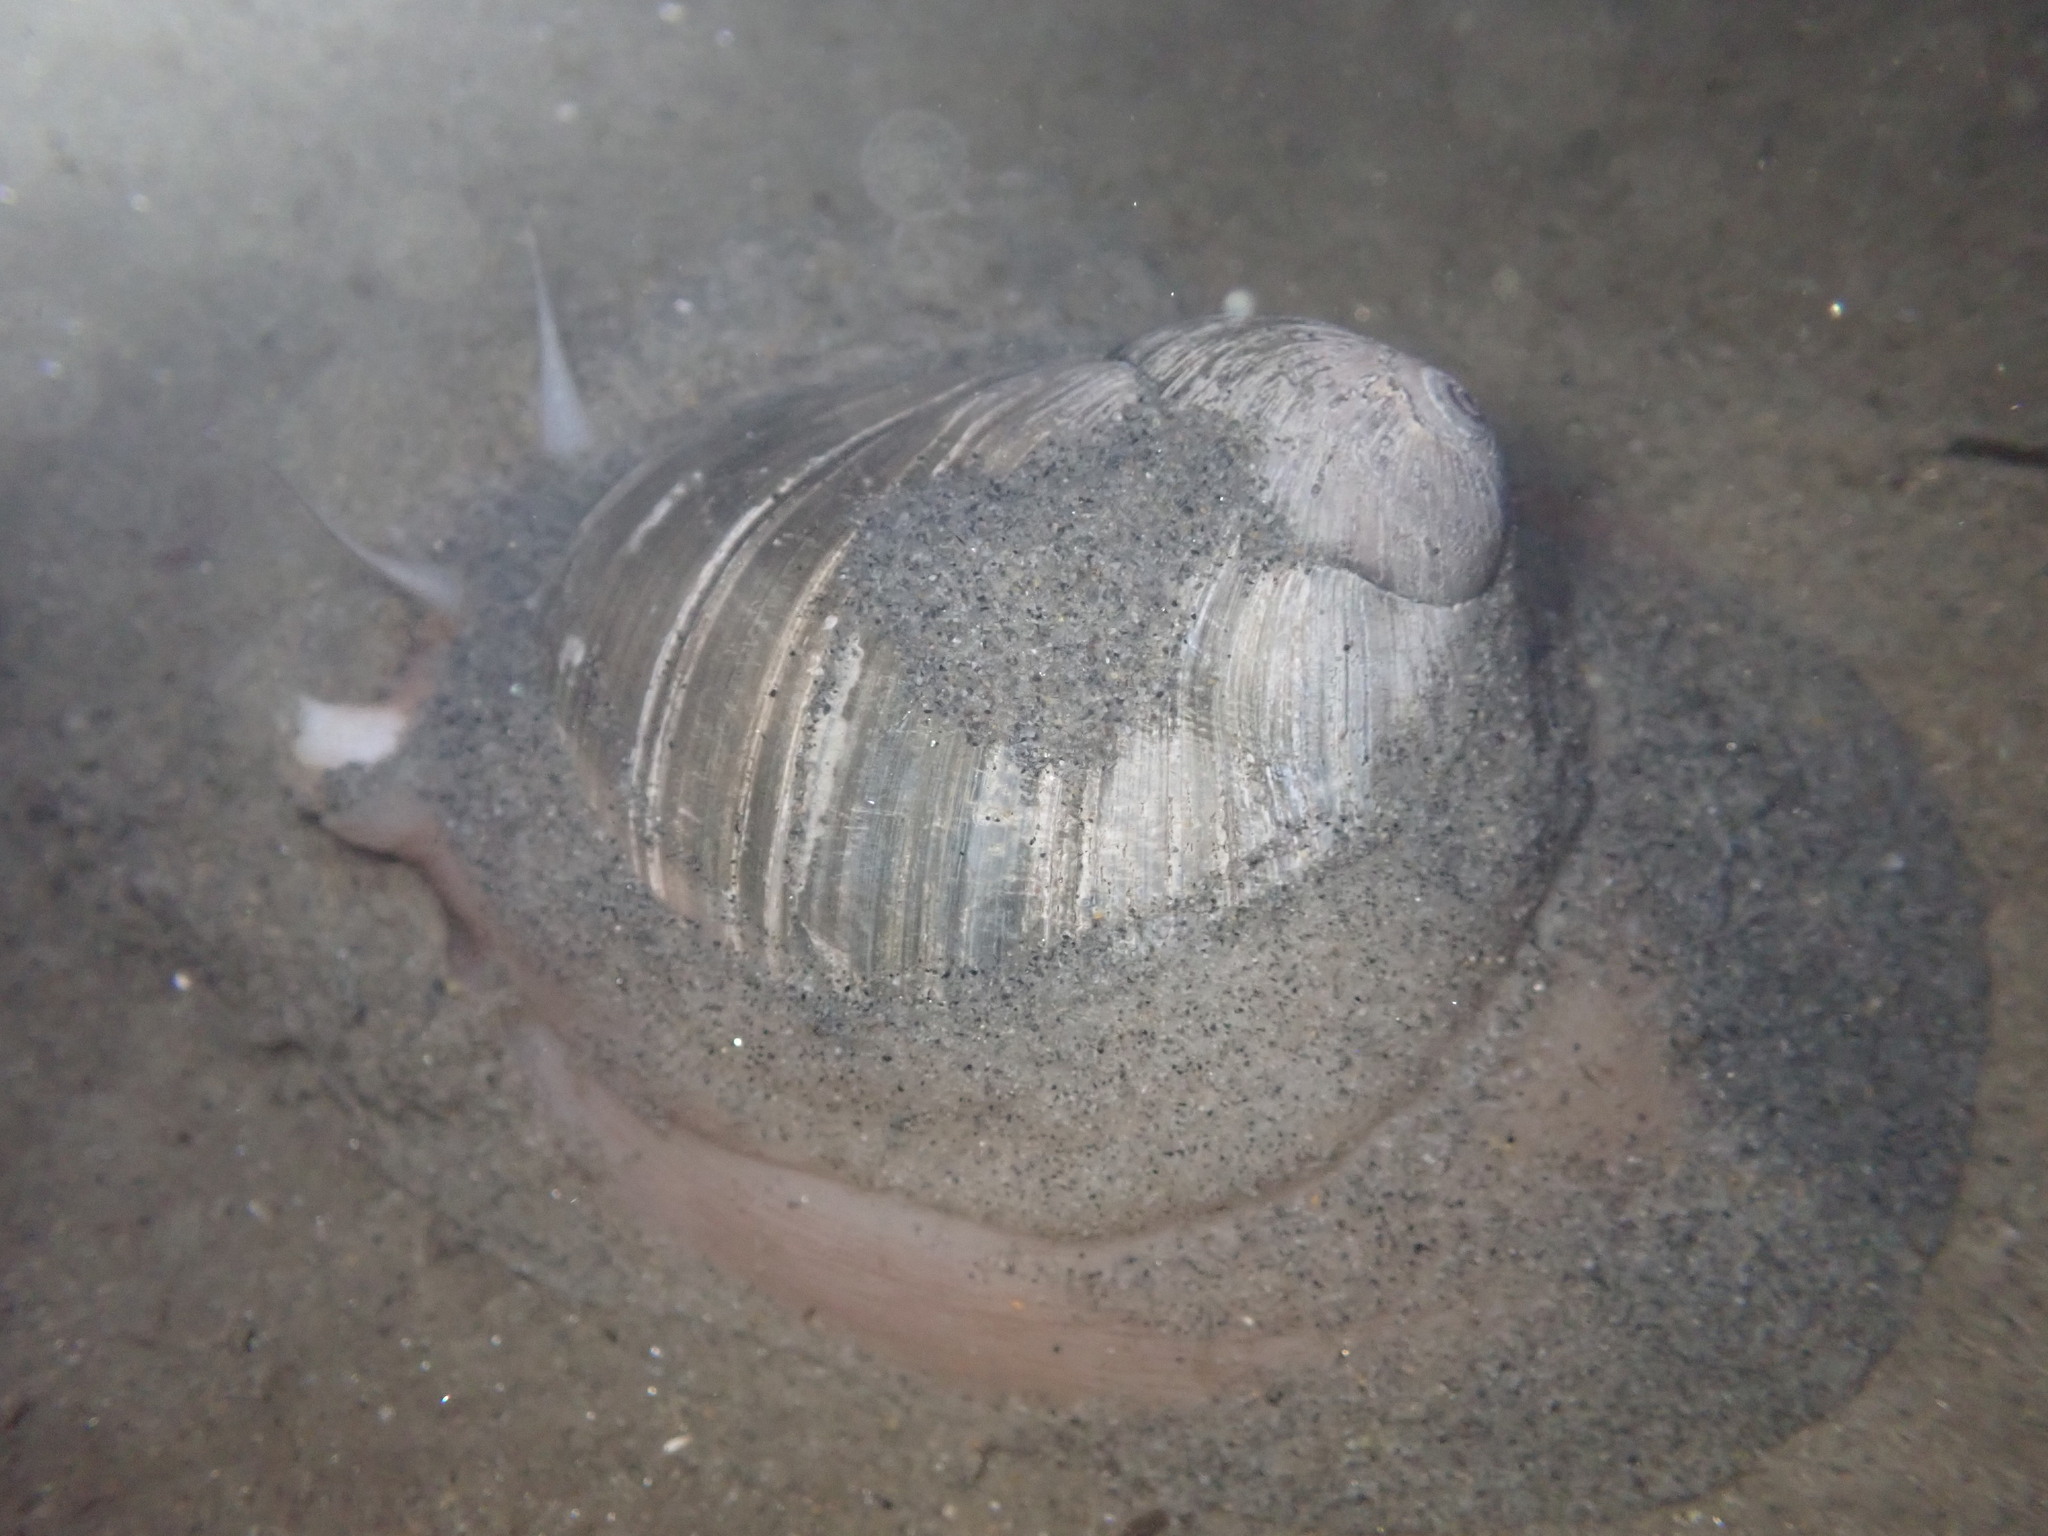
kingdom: Animalia
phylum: Mollusca
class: Gastropoda
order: Littorinimorpha
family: Naticidae
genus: Neverita
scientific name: Neverita lewisii
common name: Lewis' moonsnail
